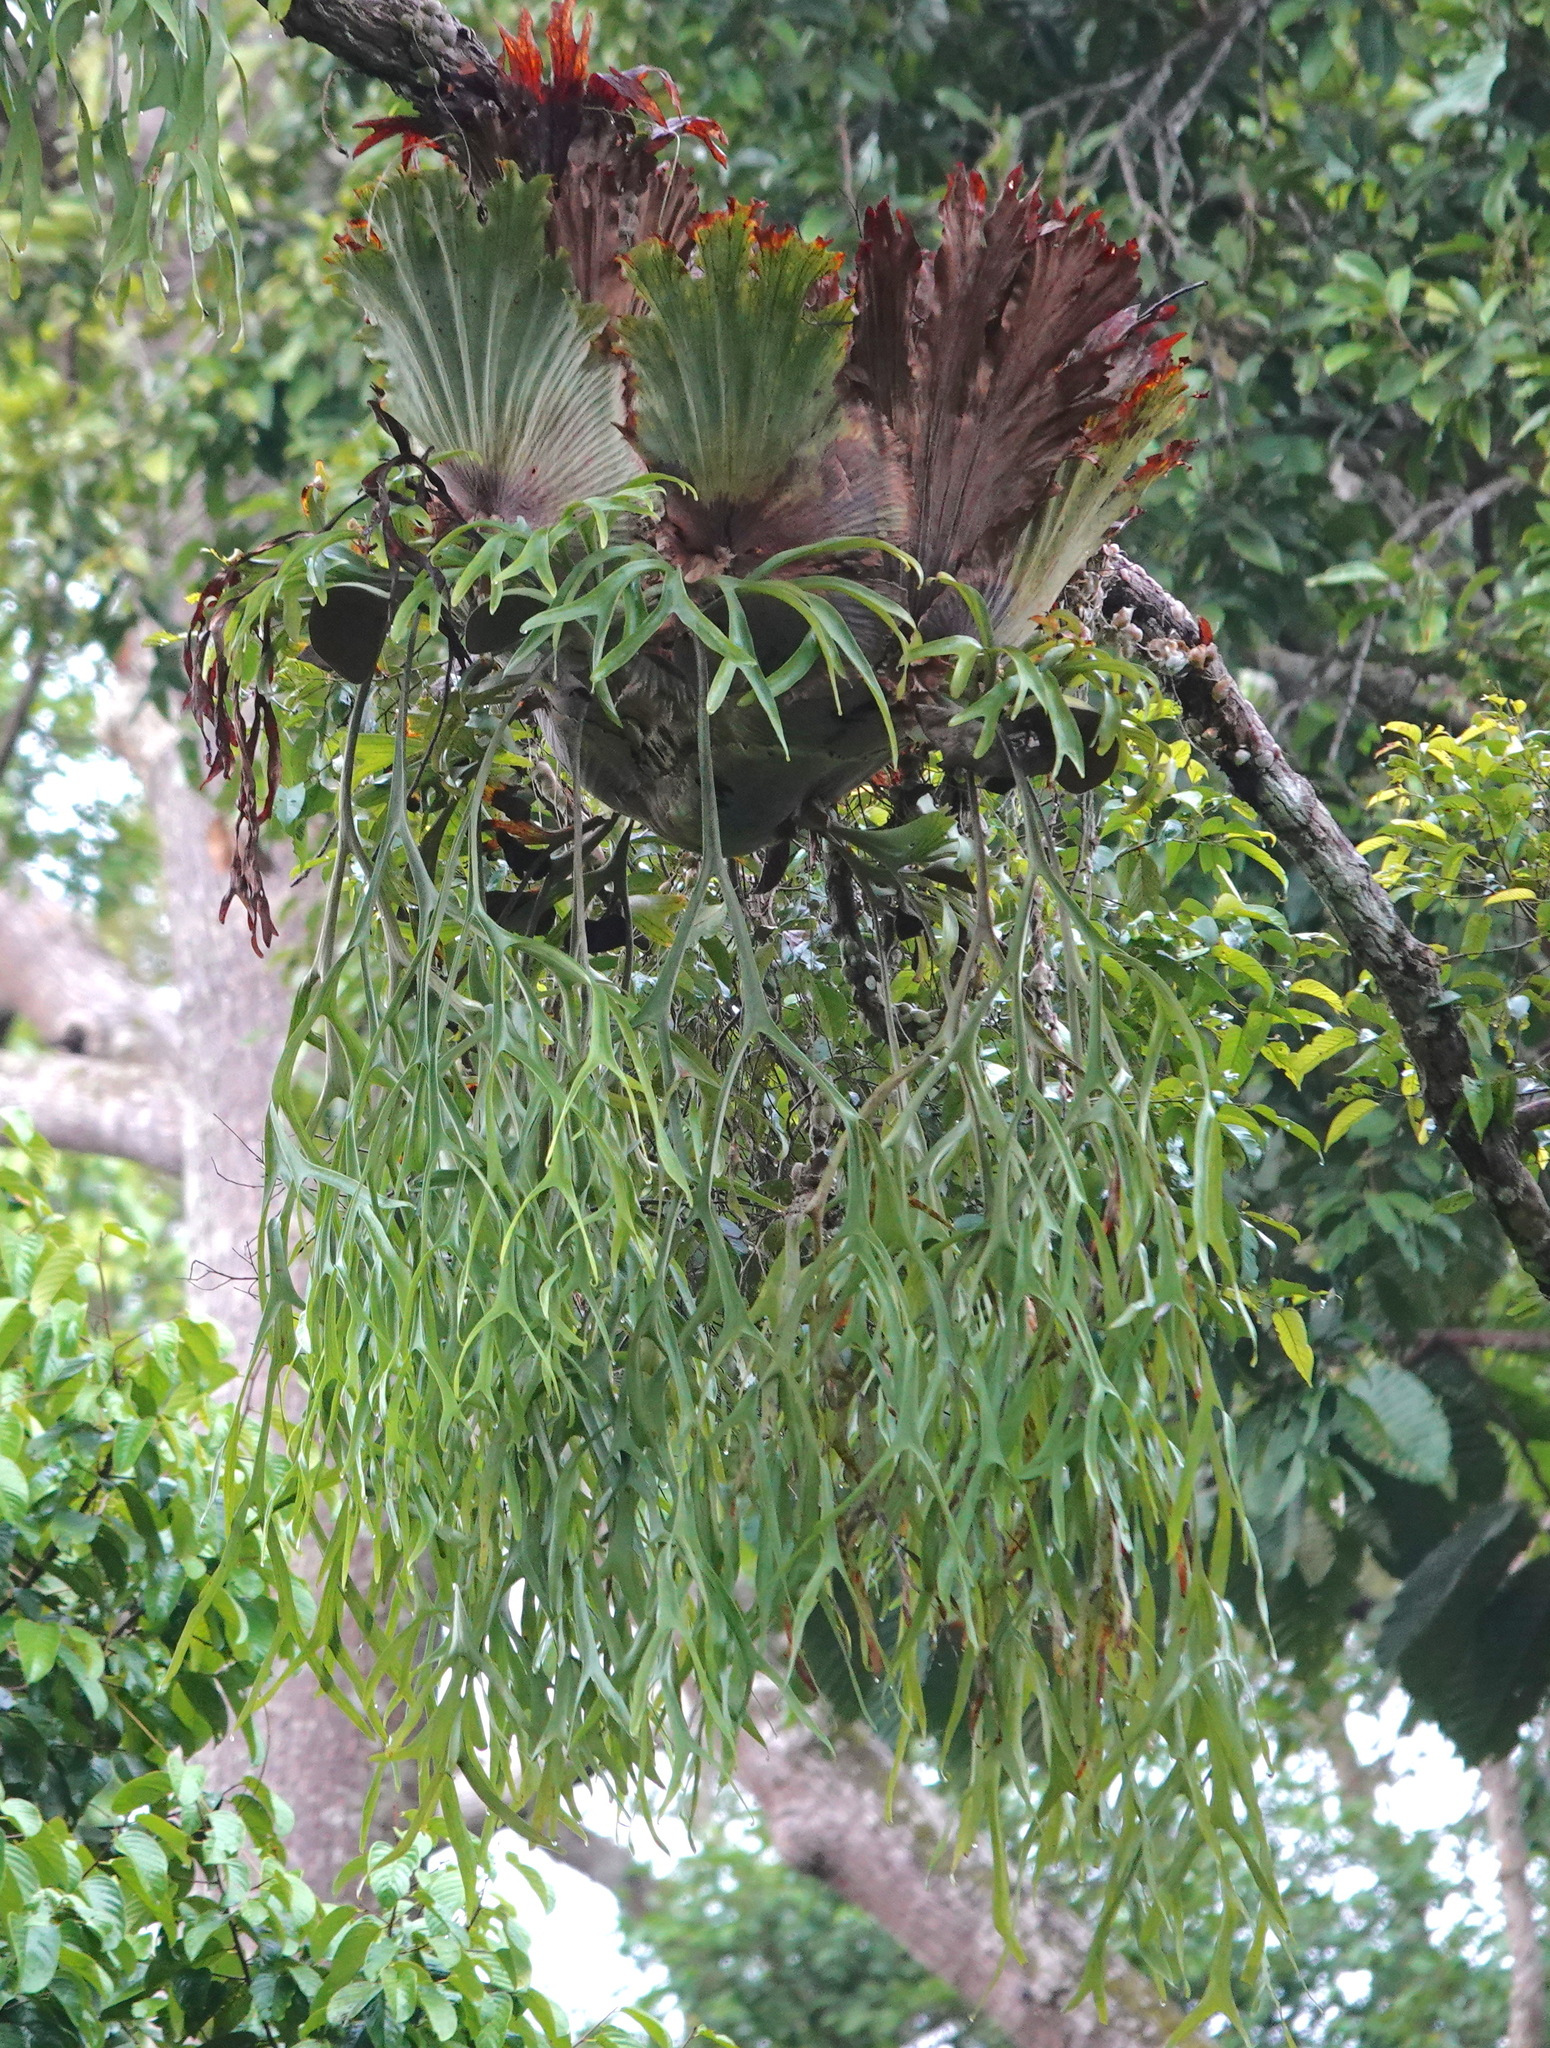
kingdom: Plantae
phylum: Tracheophyta
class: Polypodiopsida
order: Polypodiales
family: Polypodiaceae
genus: Platycerium
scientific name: Platycerium coronarium
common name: Elkhorn fern
